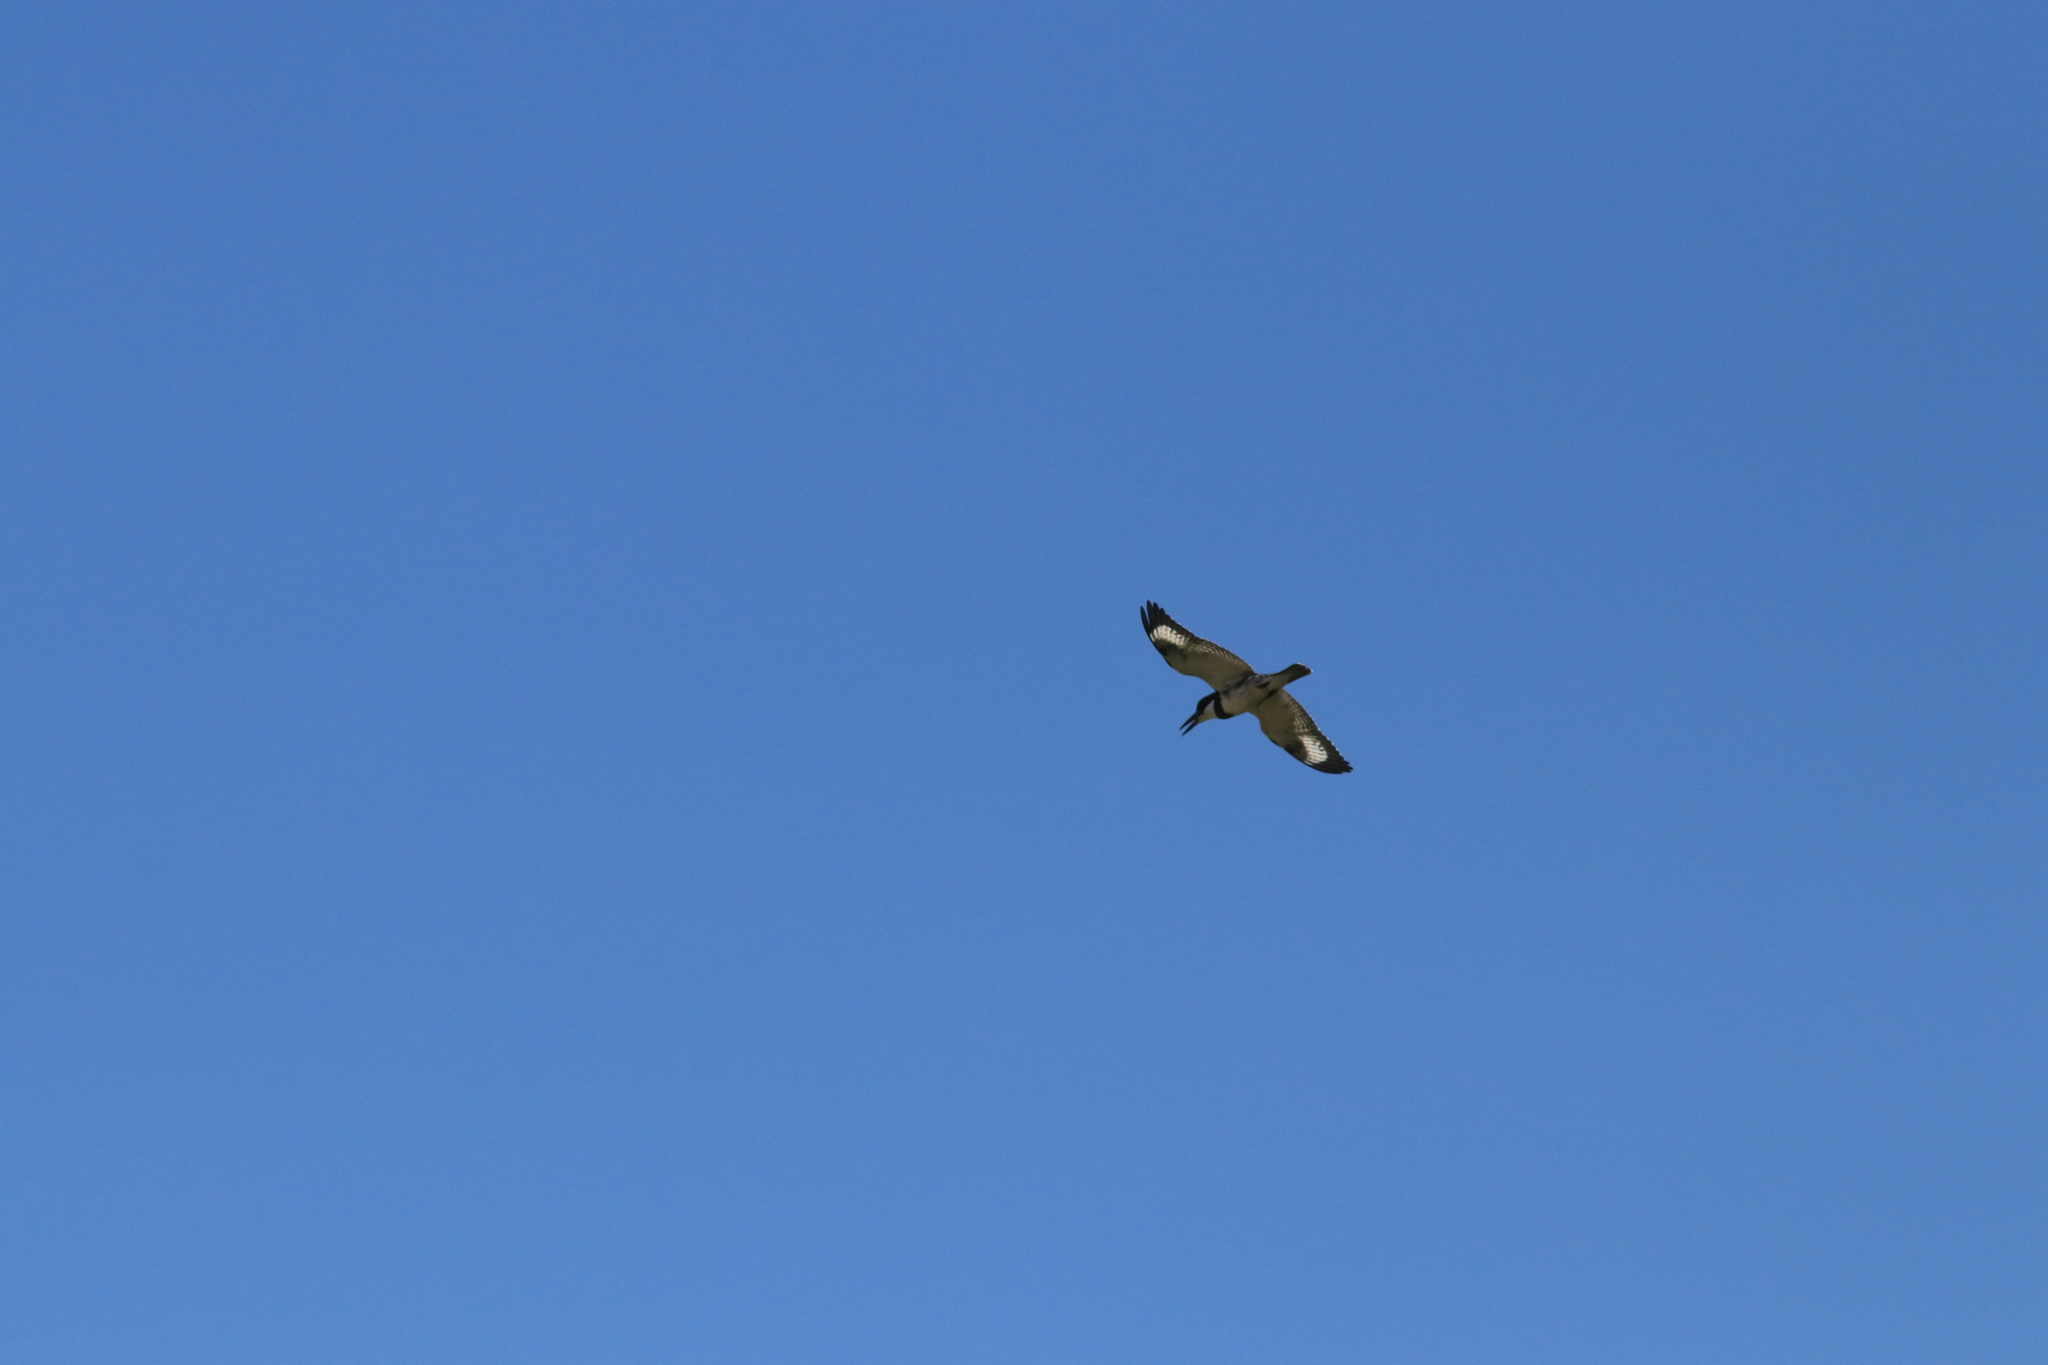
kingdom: Animalia
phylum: Chordata
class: Aves
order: Coraciiformes
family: Alcedinidae
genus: Megaceryle
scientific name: Megaceryle alcyon
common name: Belted kingfisher
